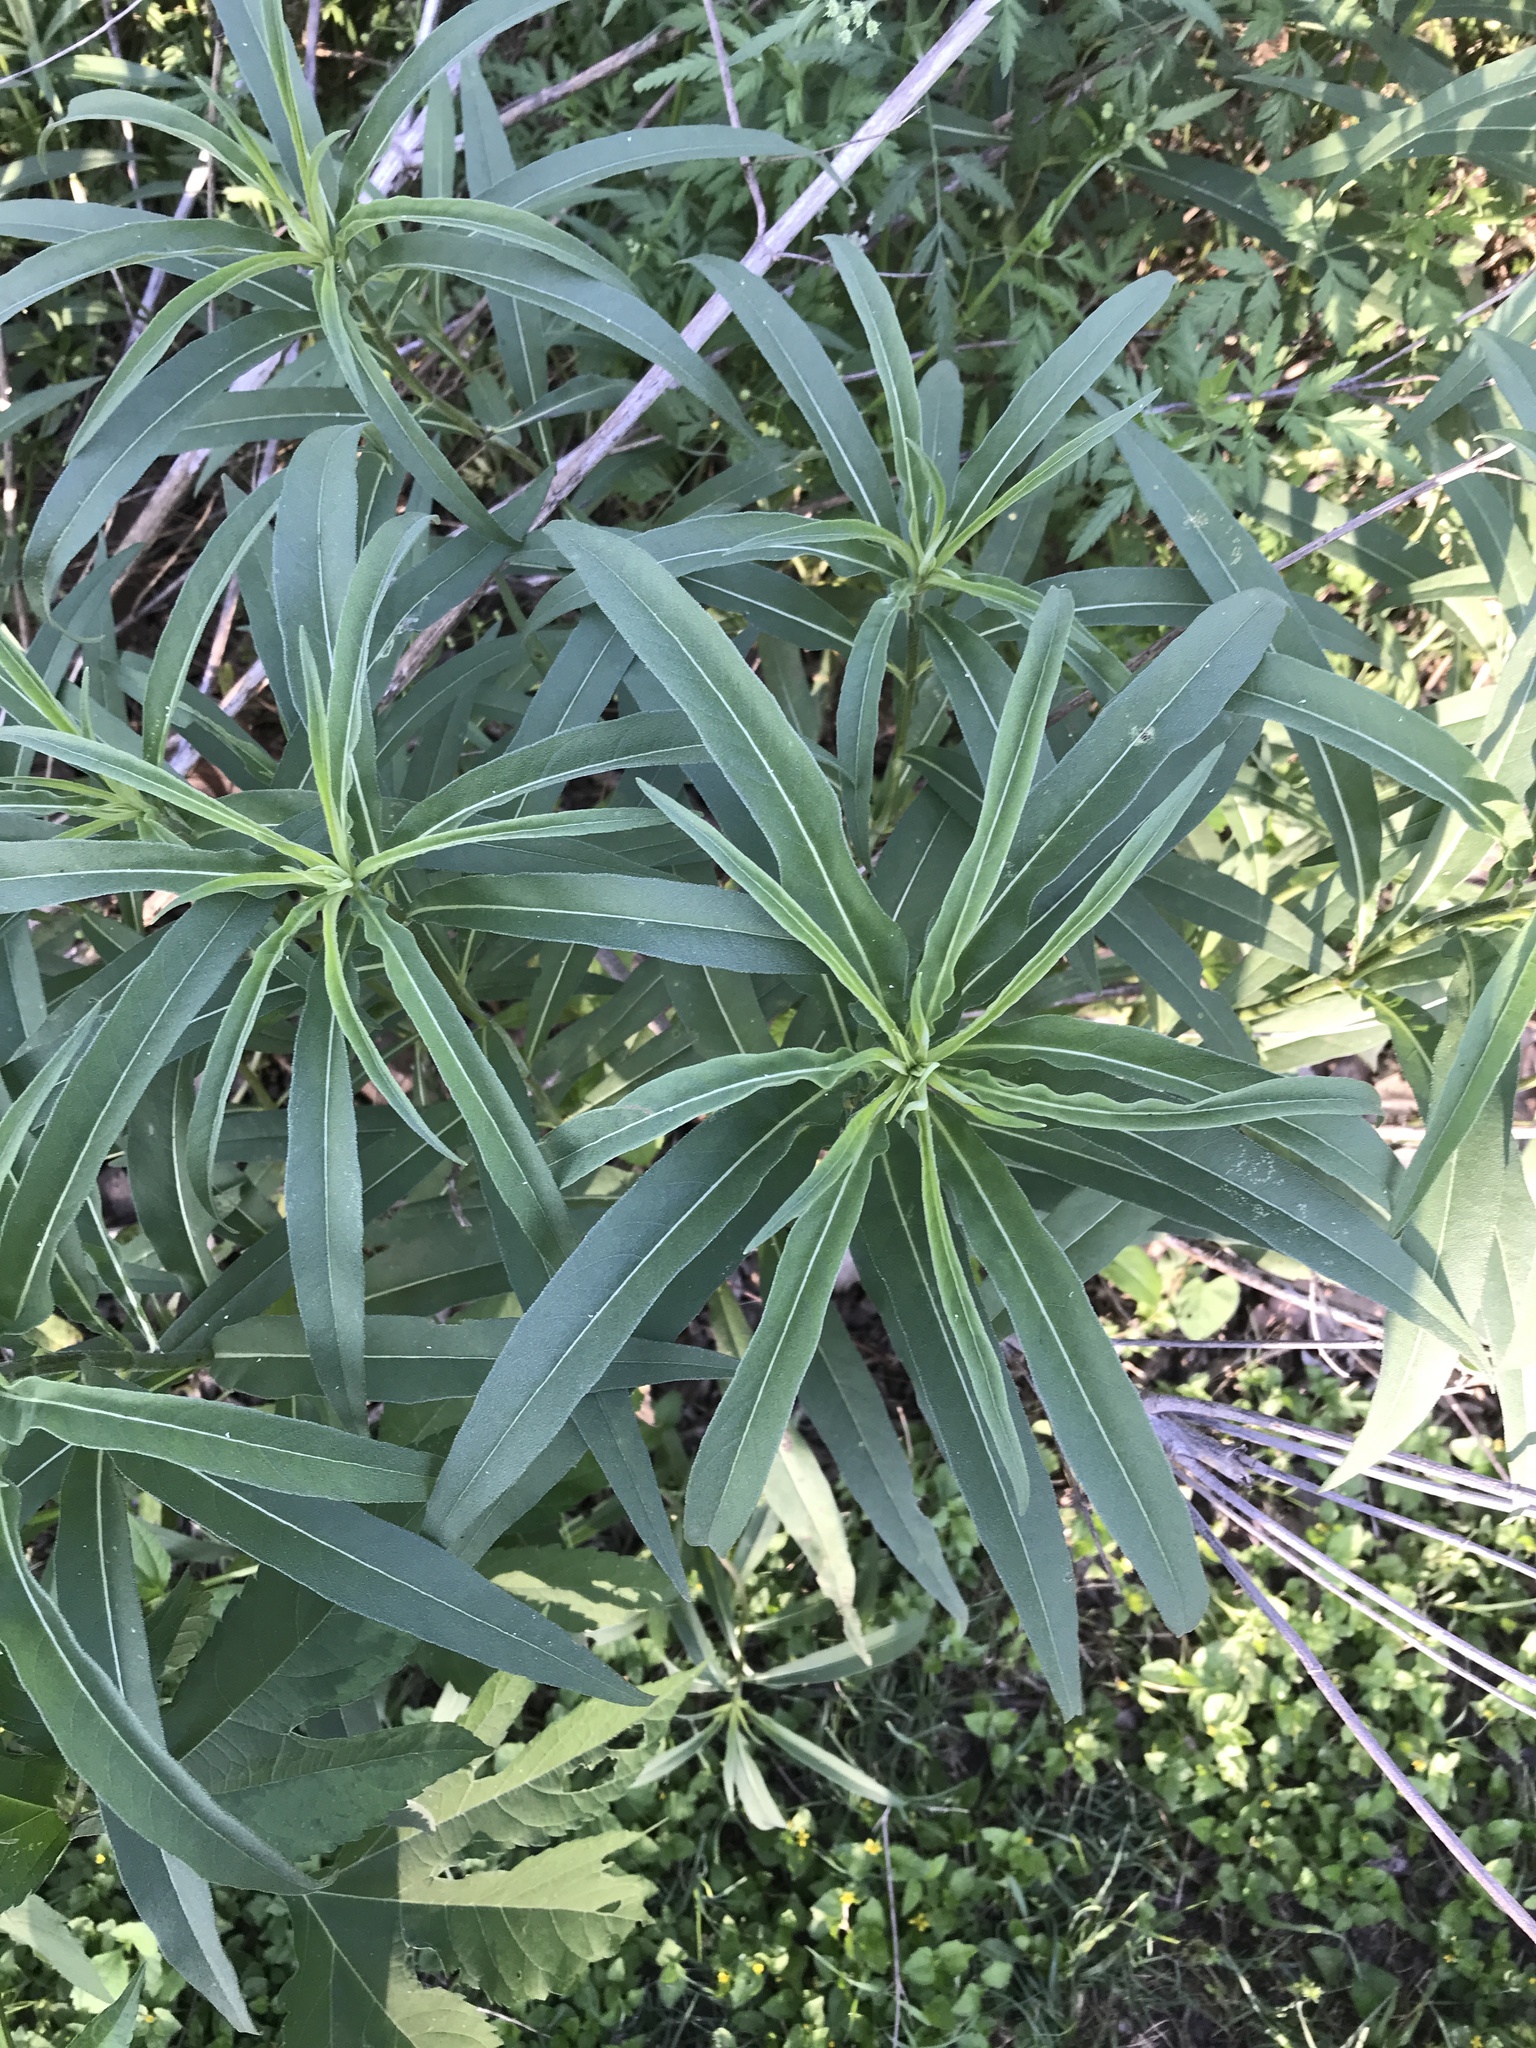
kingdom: Plantae
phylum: Tracheophyta
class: Magnoliopsida
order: Asterales
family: Asteraceae
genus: Helianthus
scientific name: Helianthus maximiliani
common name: Maximilian's sunflower
